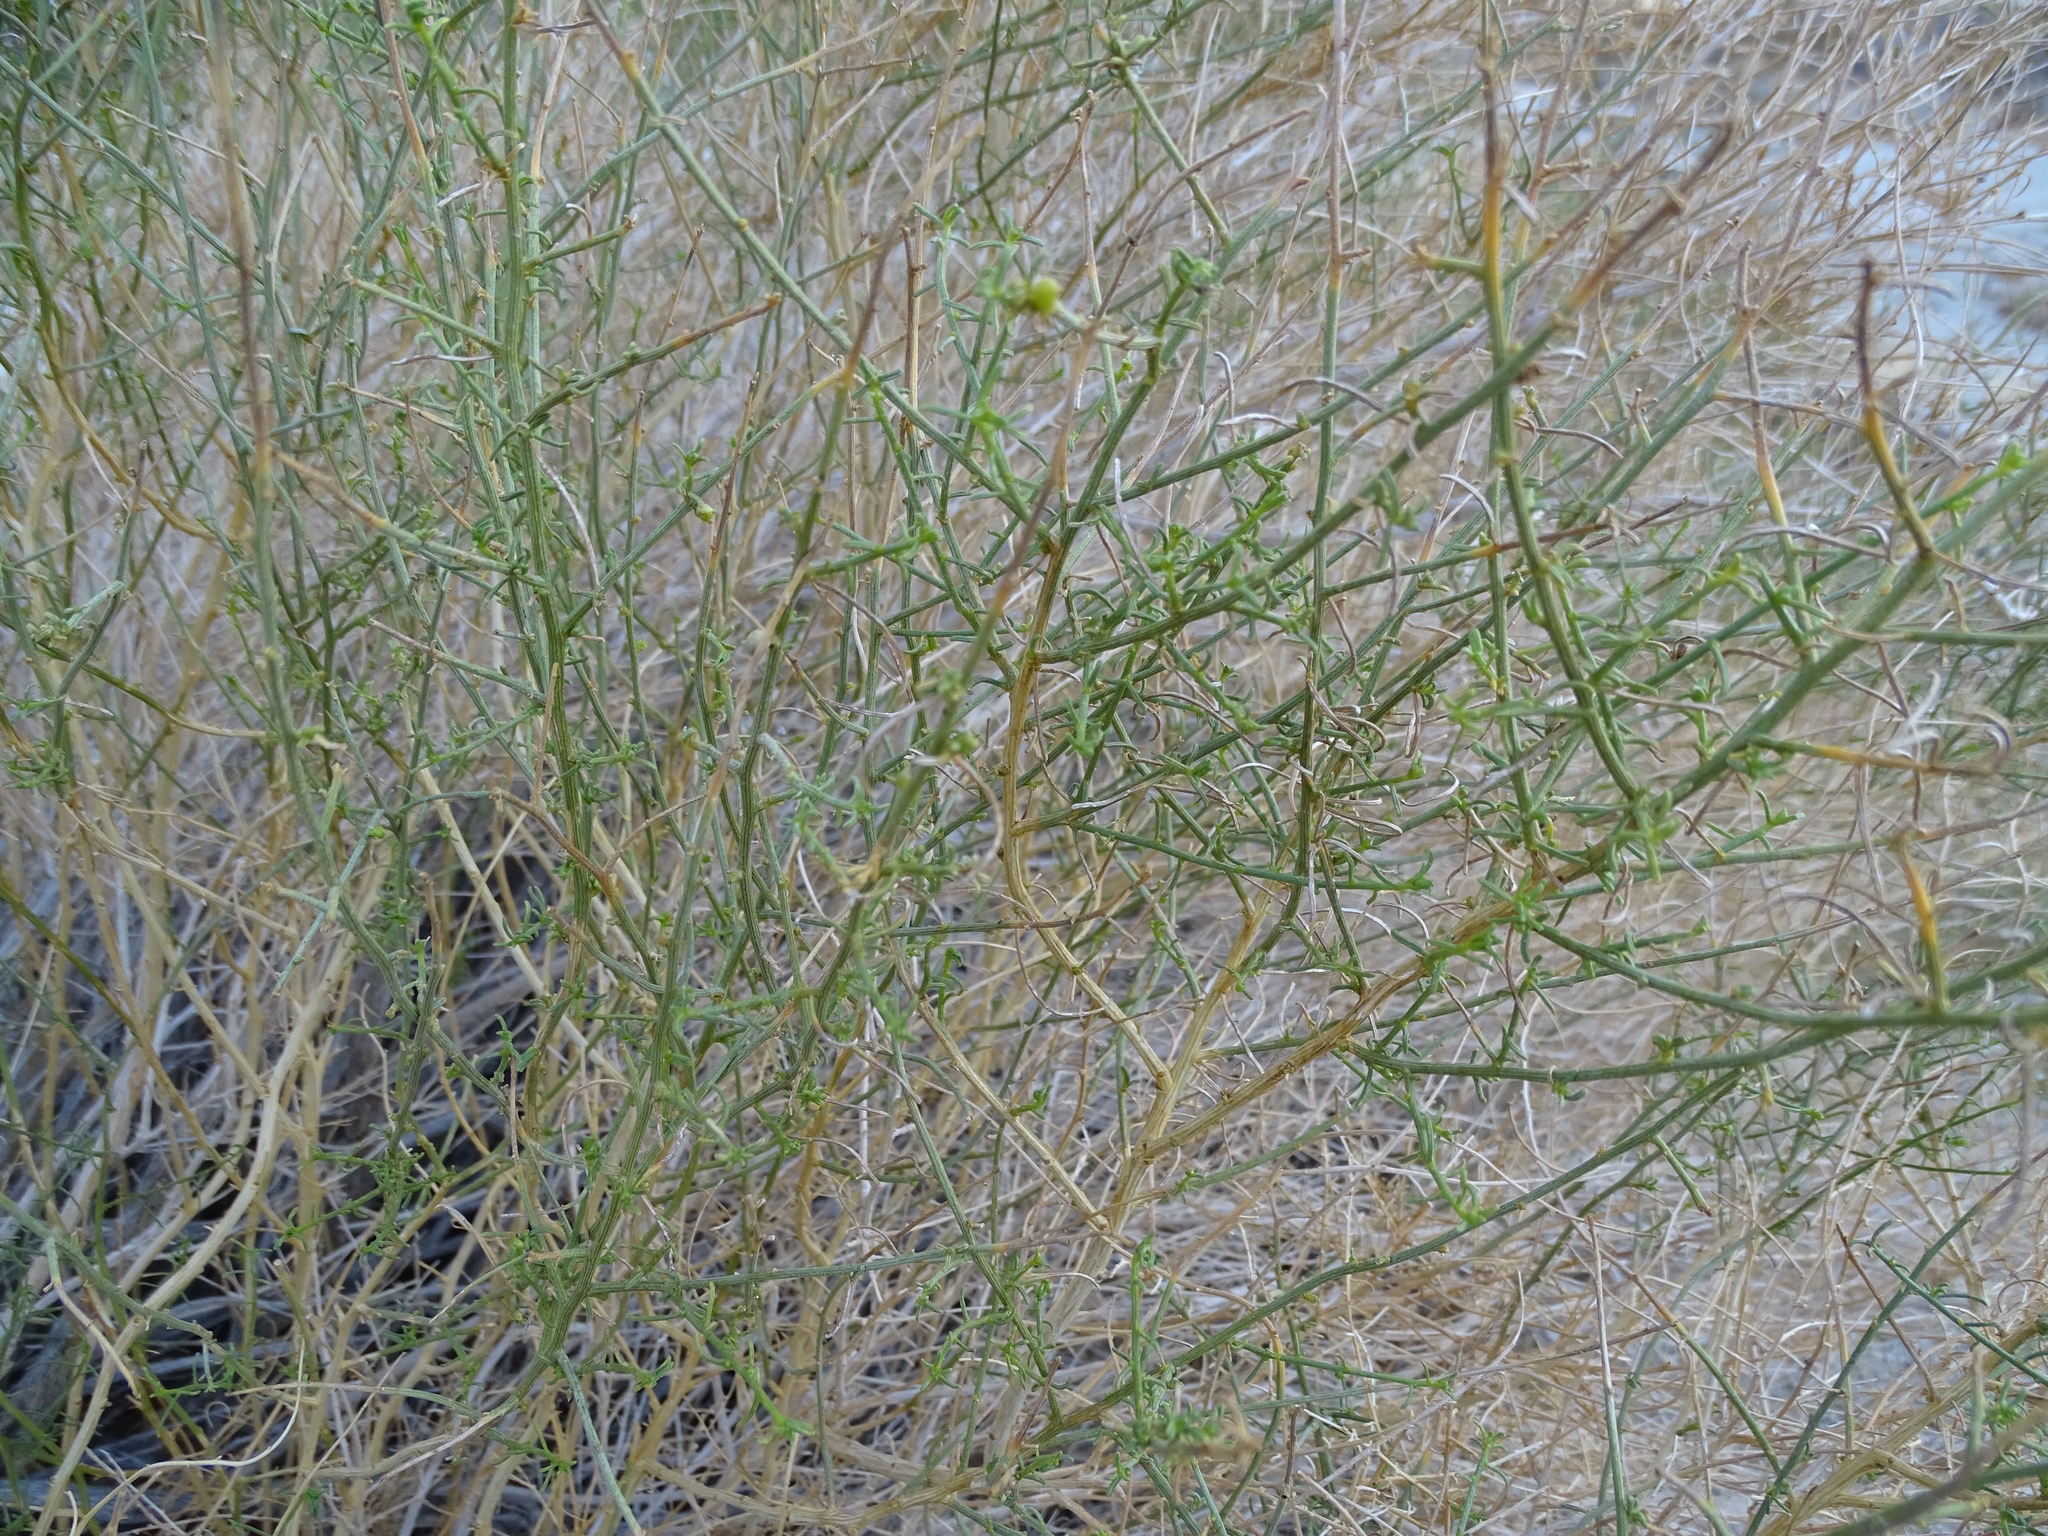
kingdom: Plantae
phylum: Tracheophyta
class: Magnoliopsida
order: Asterales
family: Asteraceae
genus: Ambrosia
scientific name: Ambrosia salsola
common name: Burrobrush
